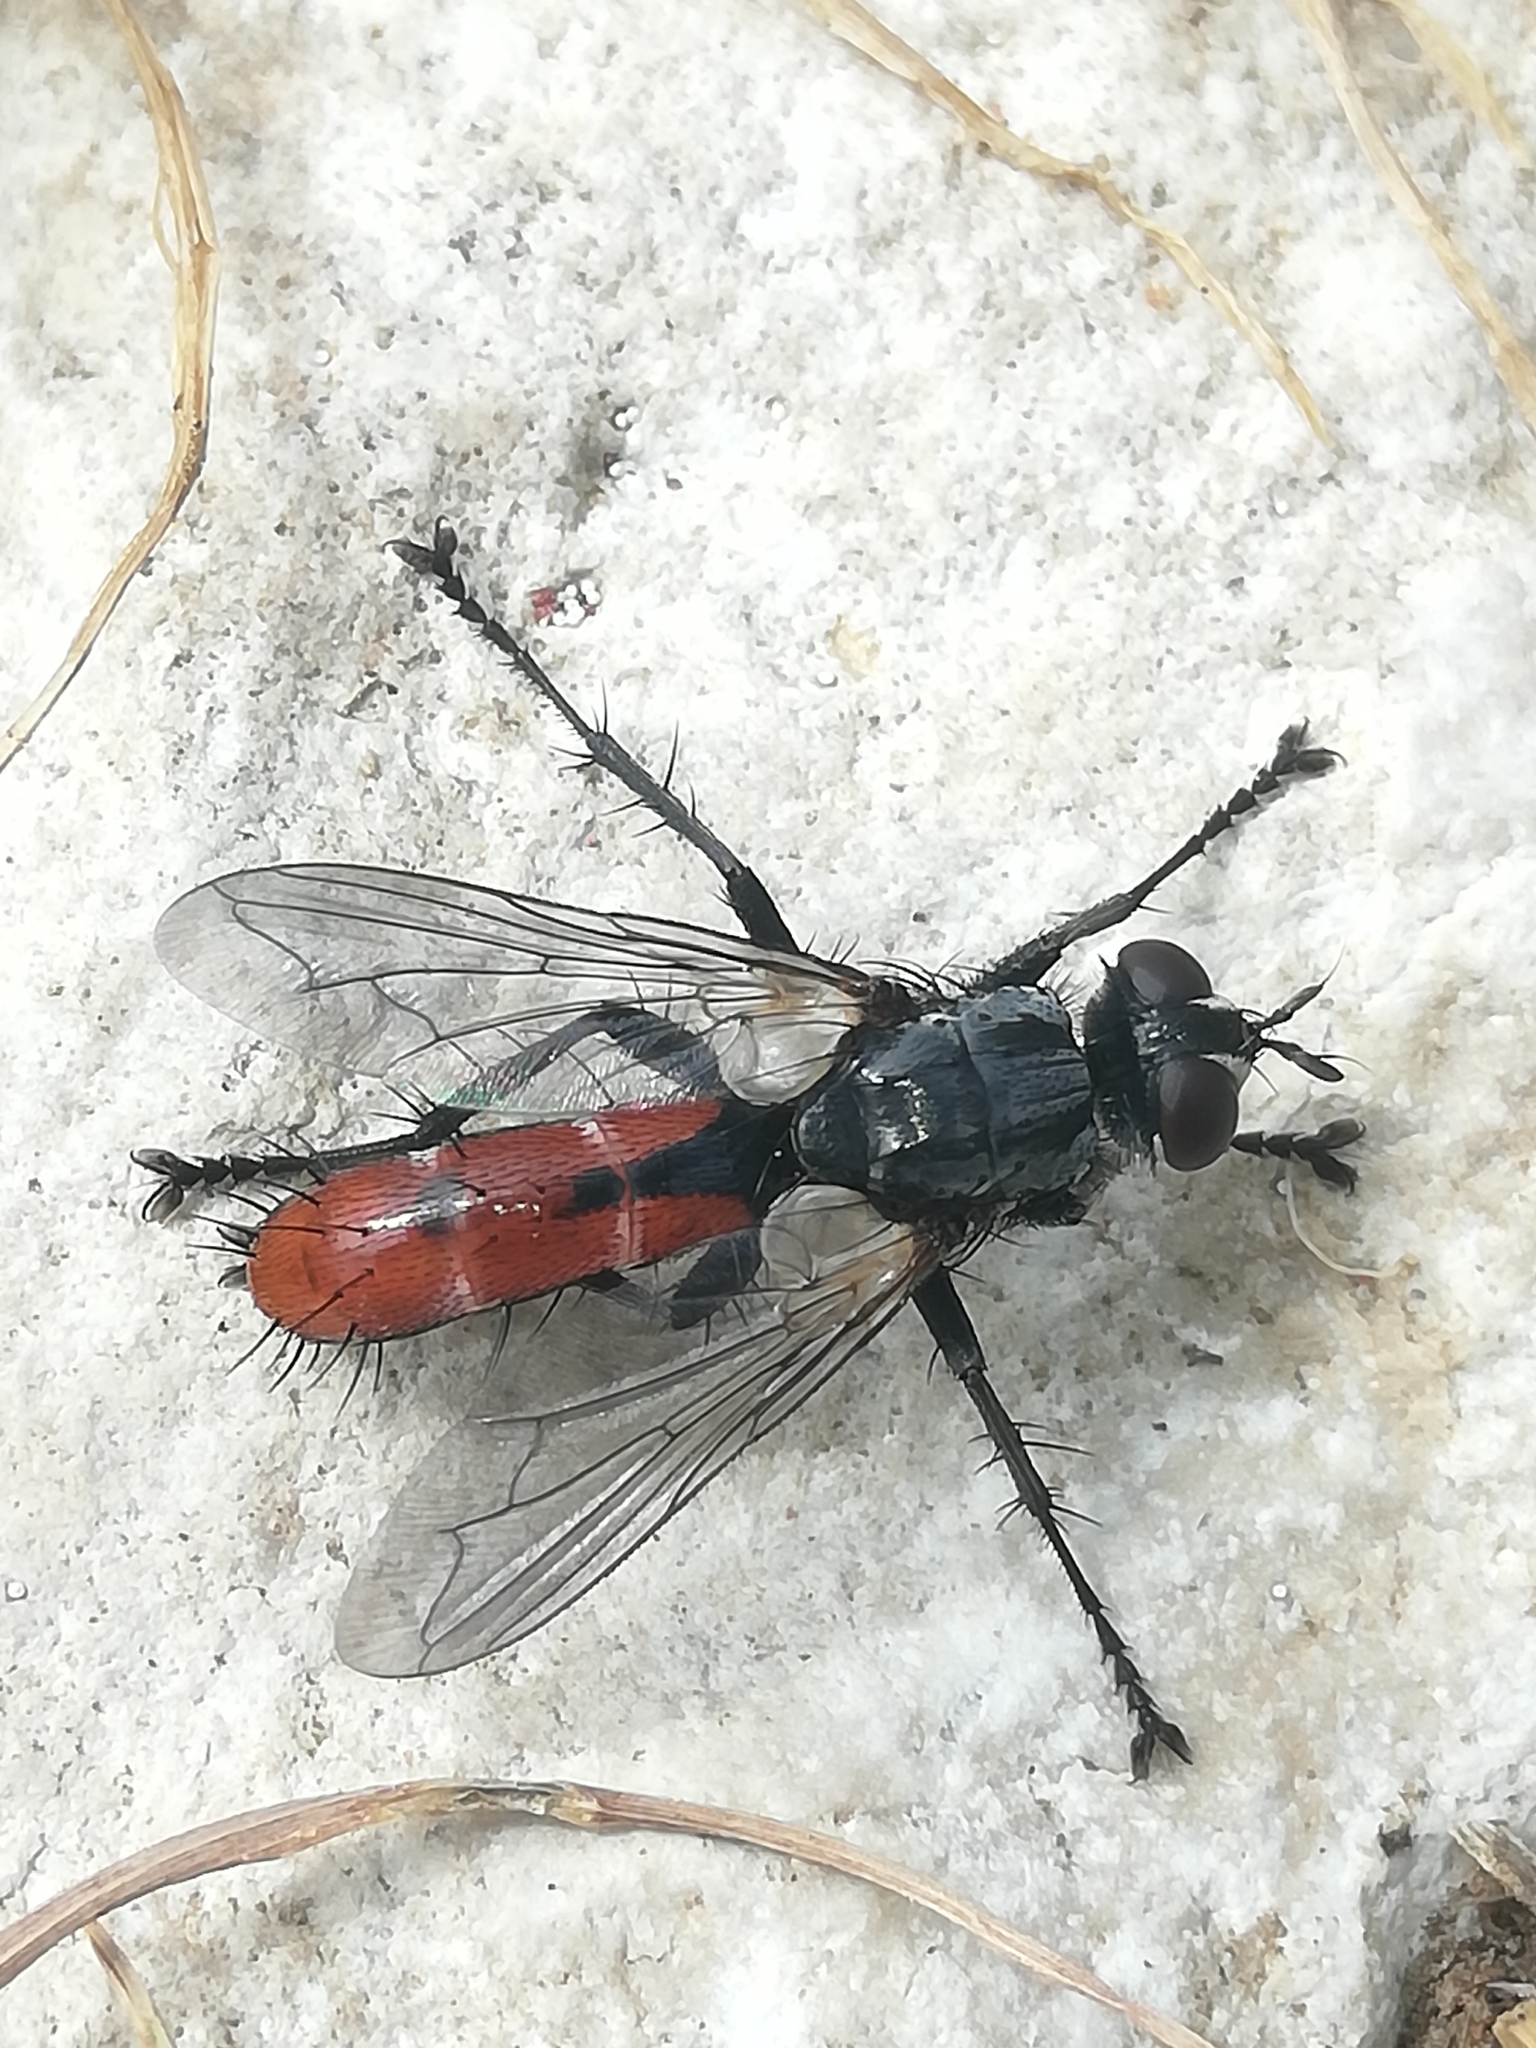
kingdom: Animalia
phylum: Arthropoda
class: Insecta
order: Diptera
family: Tachinidae
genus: Cylindromyia
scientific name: Cylindromyia bicolor
